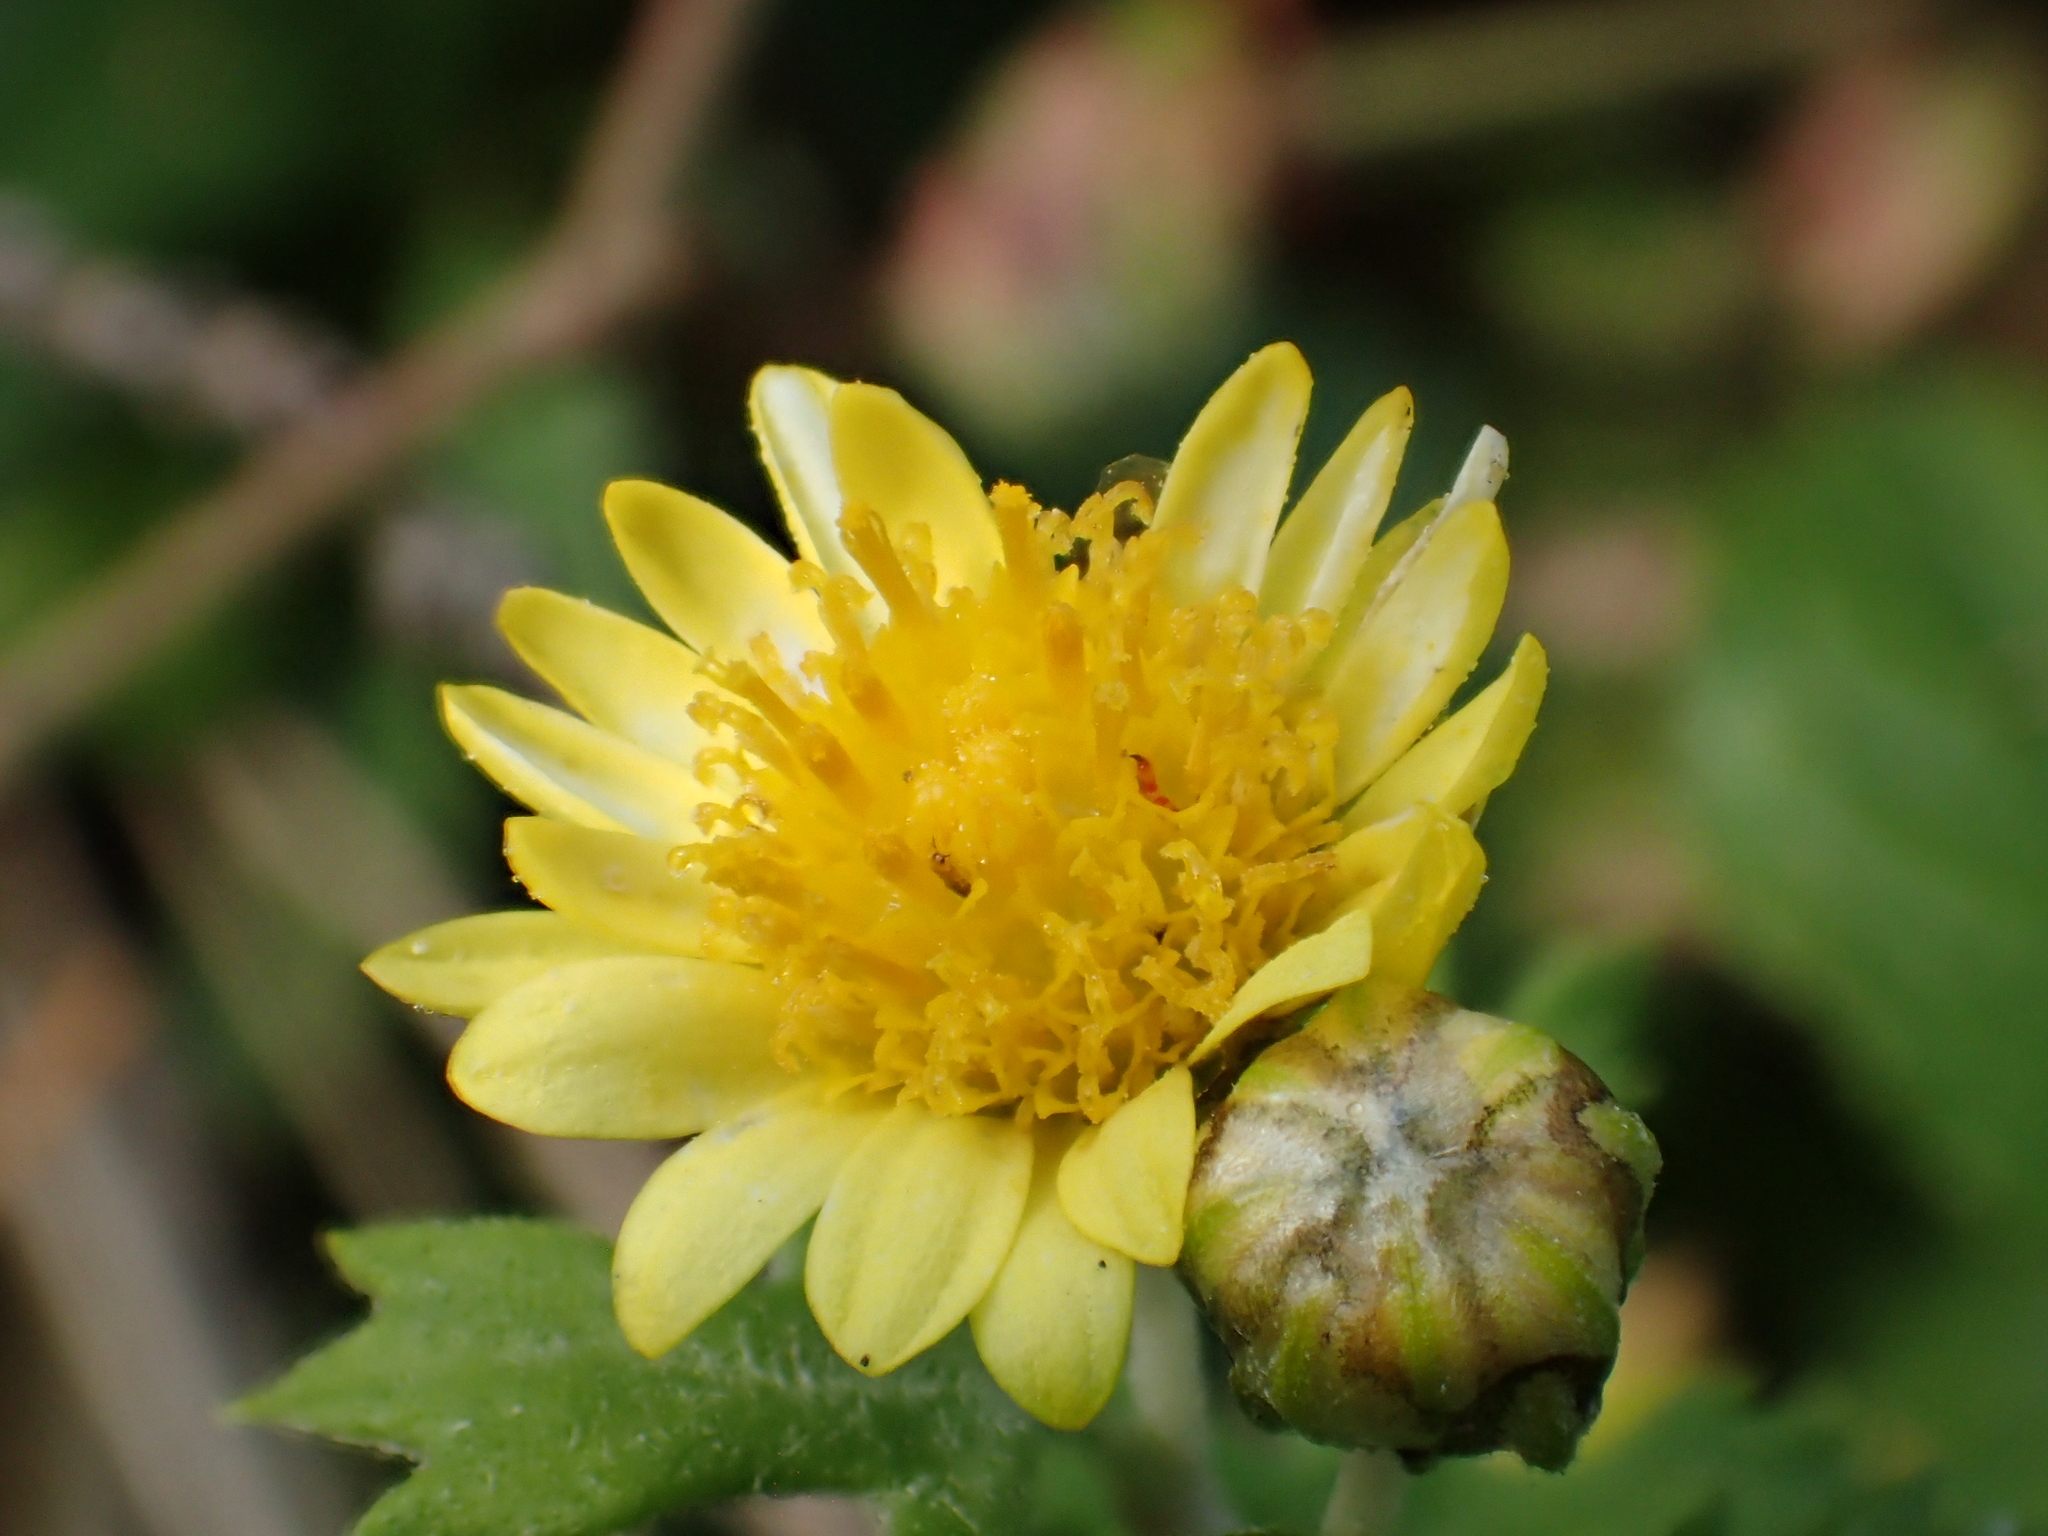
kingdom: Plantae
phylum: Tracheophyta
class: Magnoliopsida
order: Asterales
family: Asteraceae
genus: Chrysanthemum
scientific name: Chrysanthemum lavandulifolium
